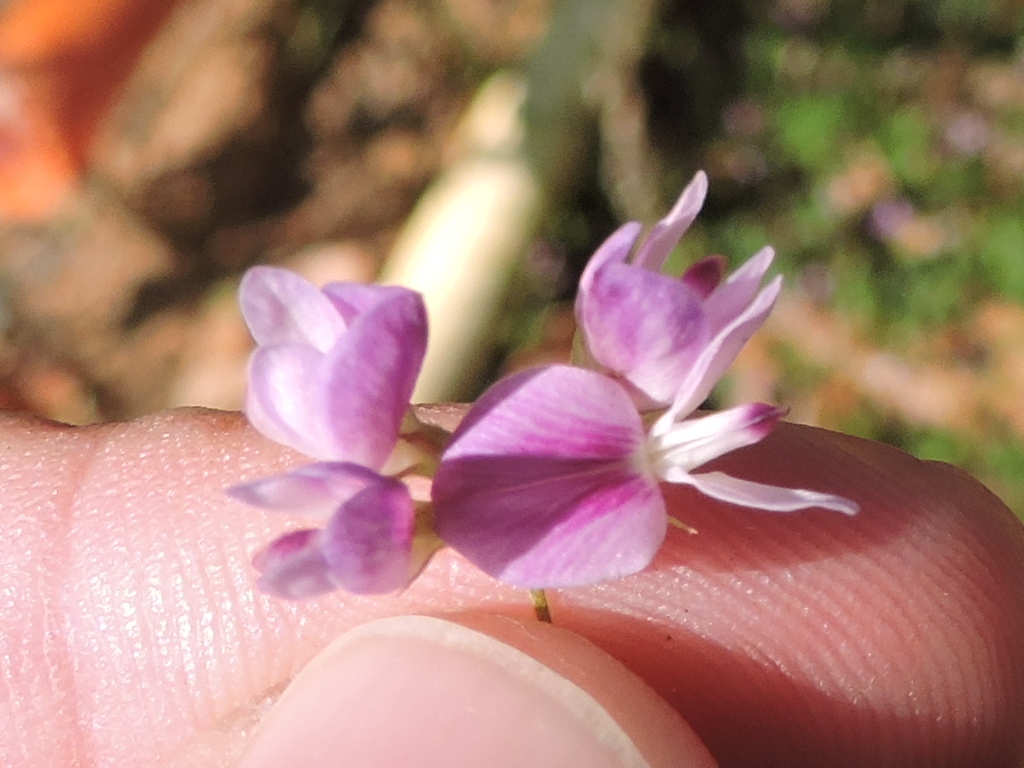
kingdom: Plantae
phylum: Tracheophyta
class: Magnoliopsida
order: Fabales
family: Fabaceae
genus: Lespedeza
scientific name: Lespedeza procumbens
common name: Downy trailing bush-clover
